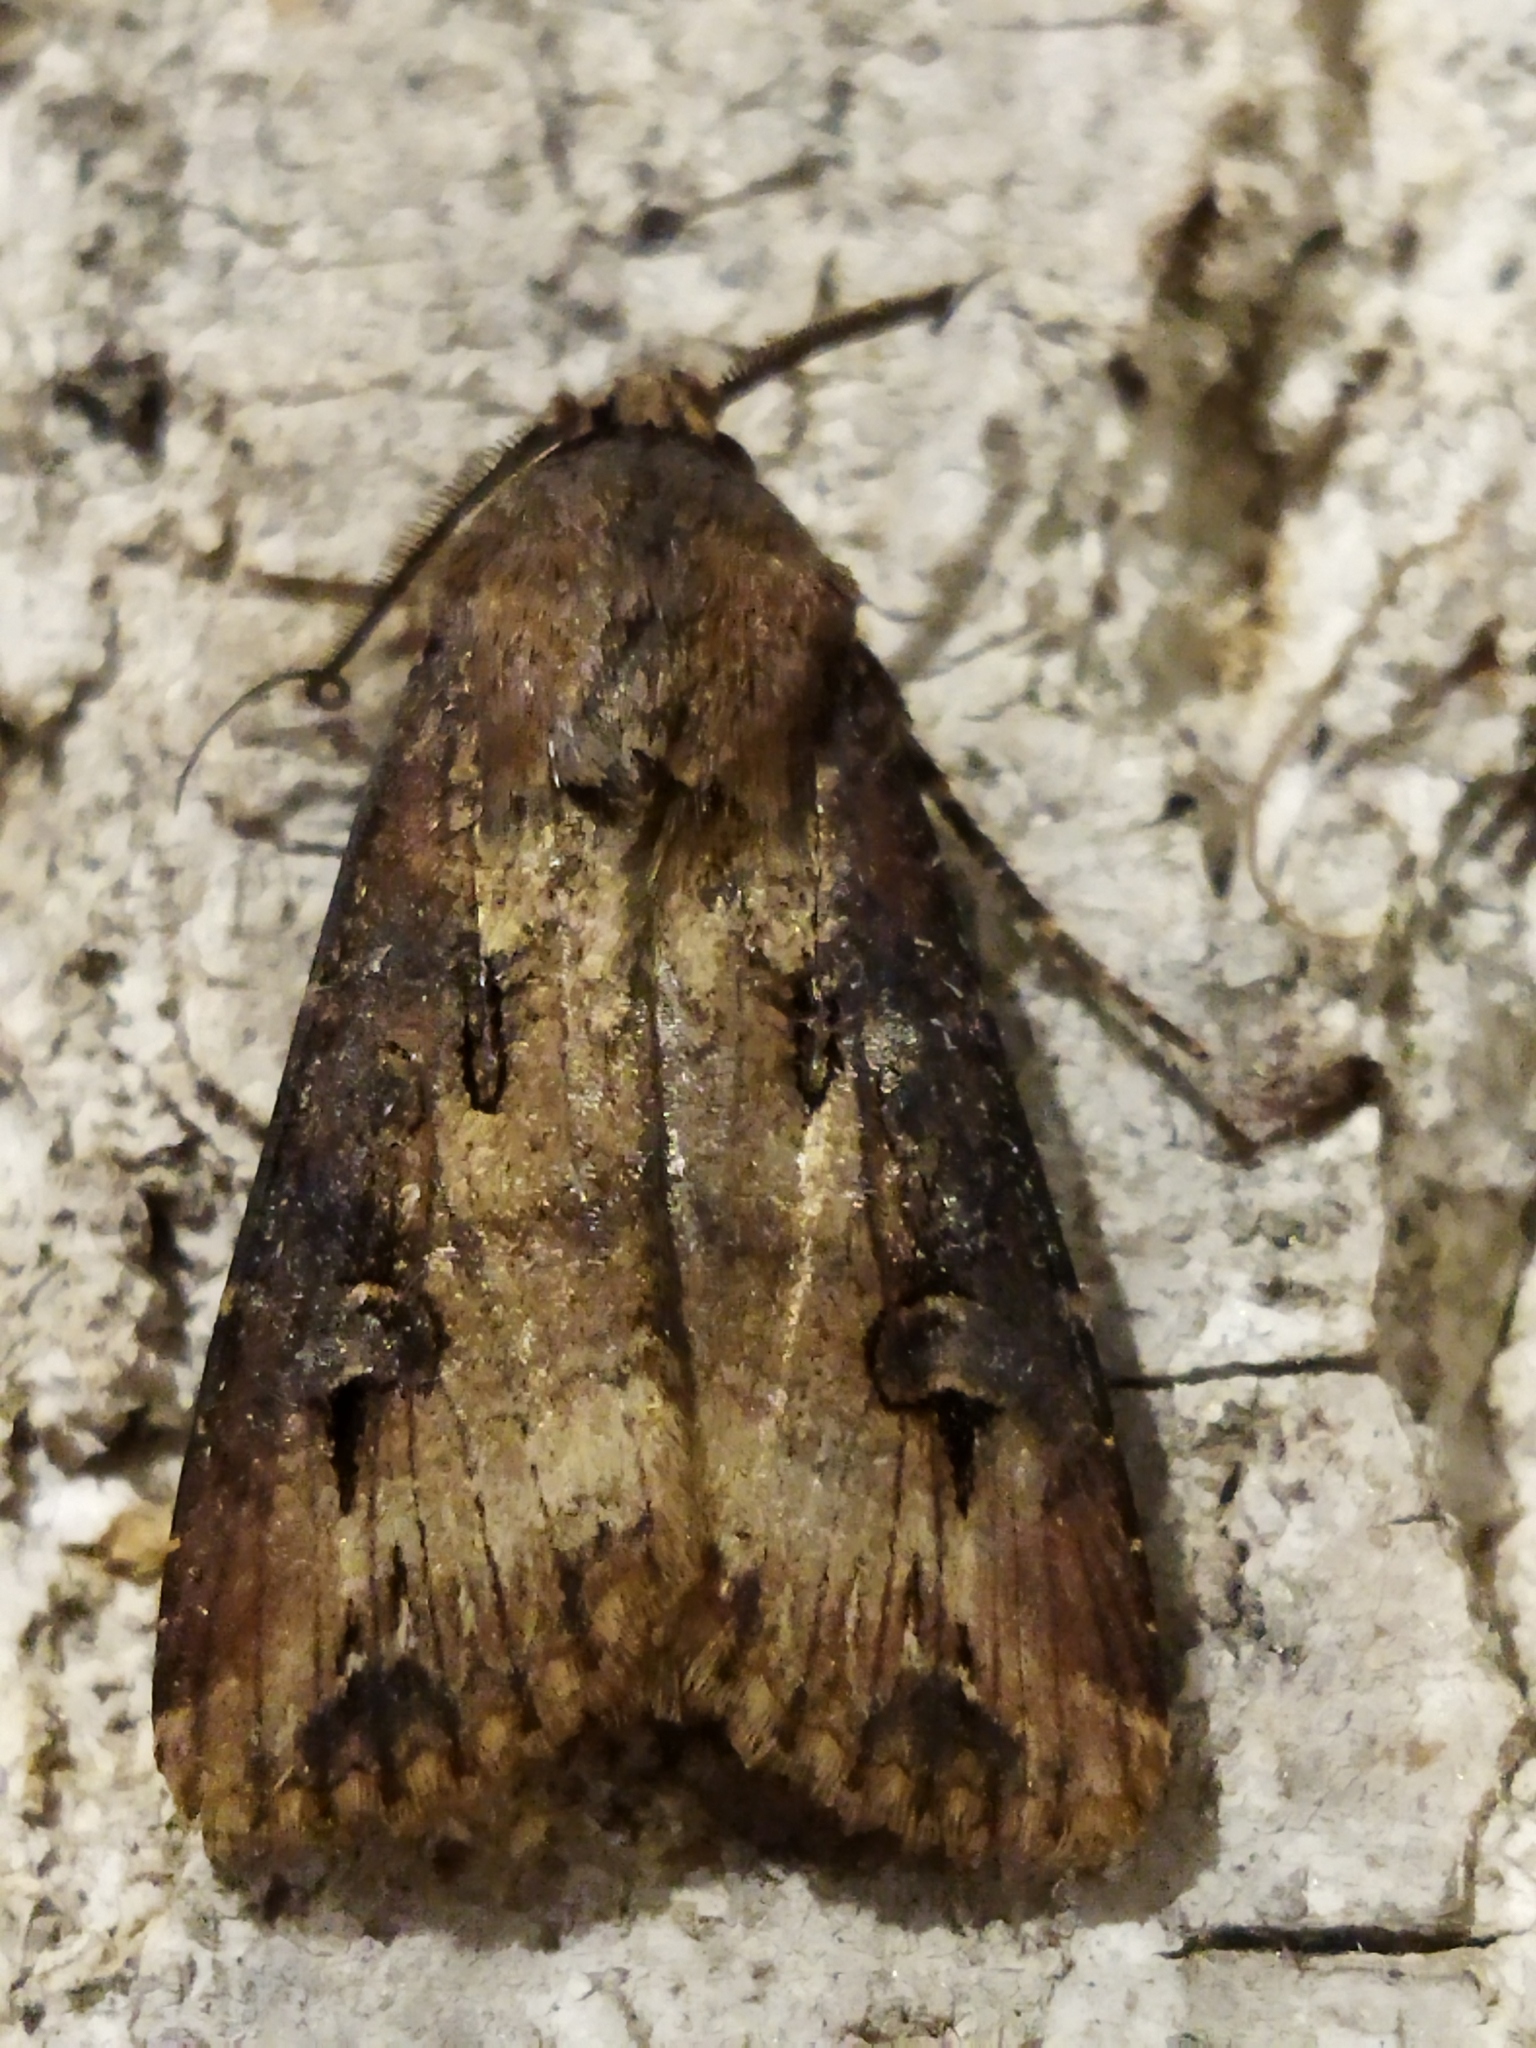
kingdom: Animalia
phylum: Arthropoda
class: Insecta
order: Lepidoptera
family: Noctuidae
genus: Agrotis
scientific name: Agrotis ipsilon
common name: Dark sword-grass
